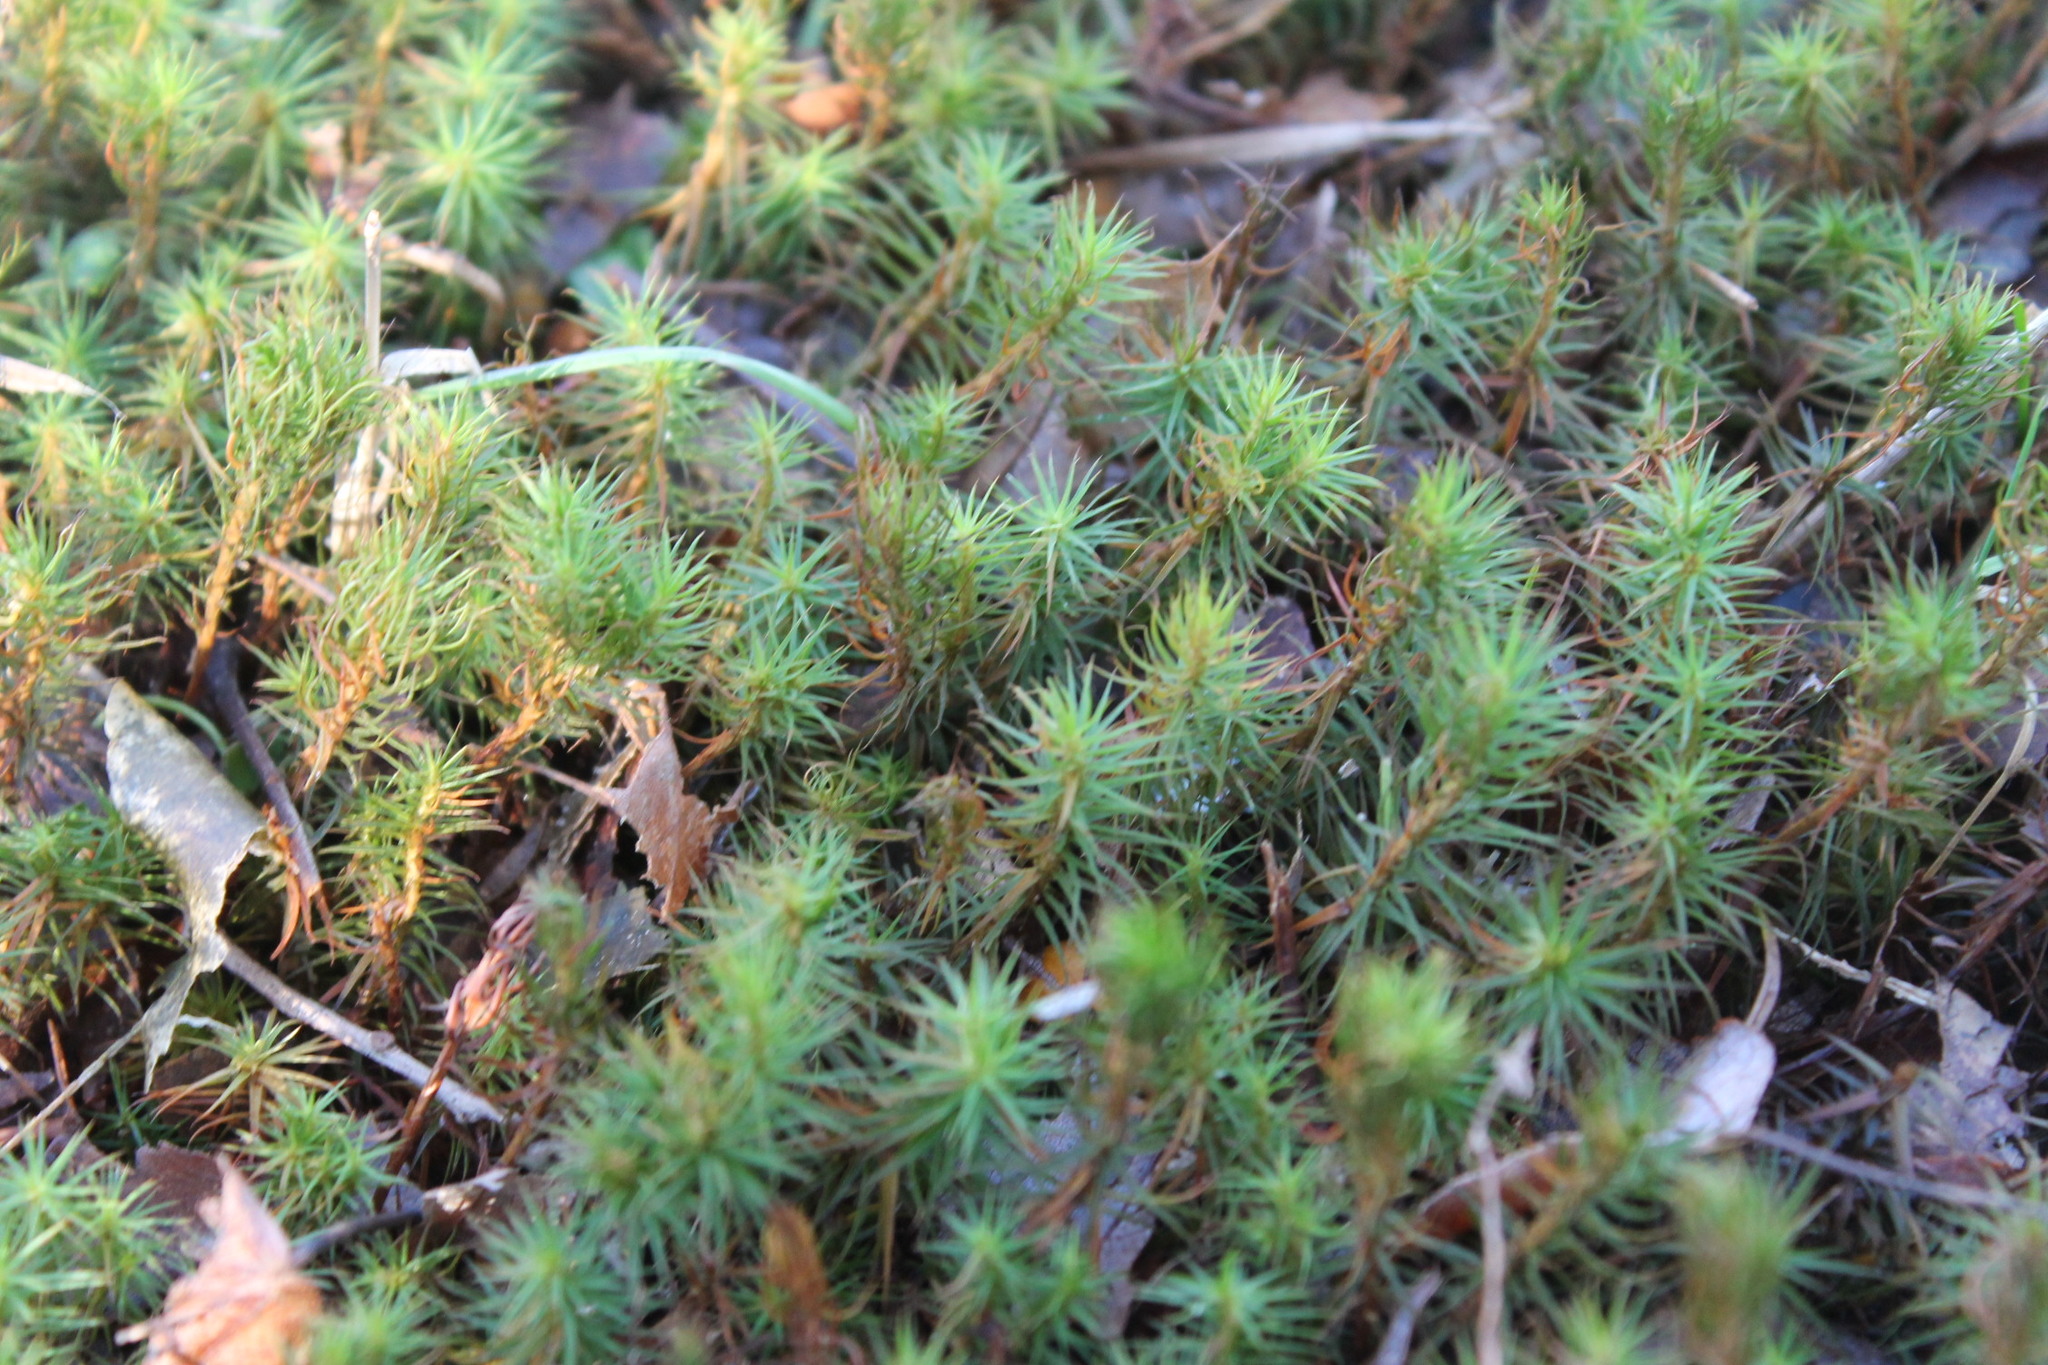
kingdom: Plantae
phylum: Bryophyta
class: Polytrichopsida
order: Polytrichales
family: Polytrichaceae
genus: Polytrichum
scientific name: Polytrichum commune
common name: Common haircap
